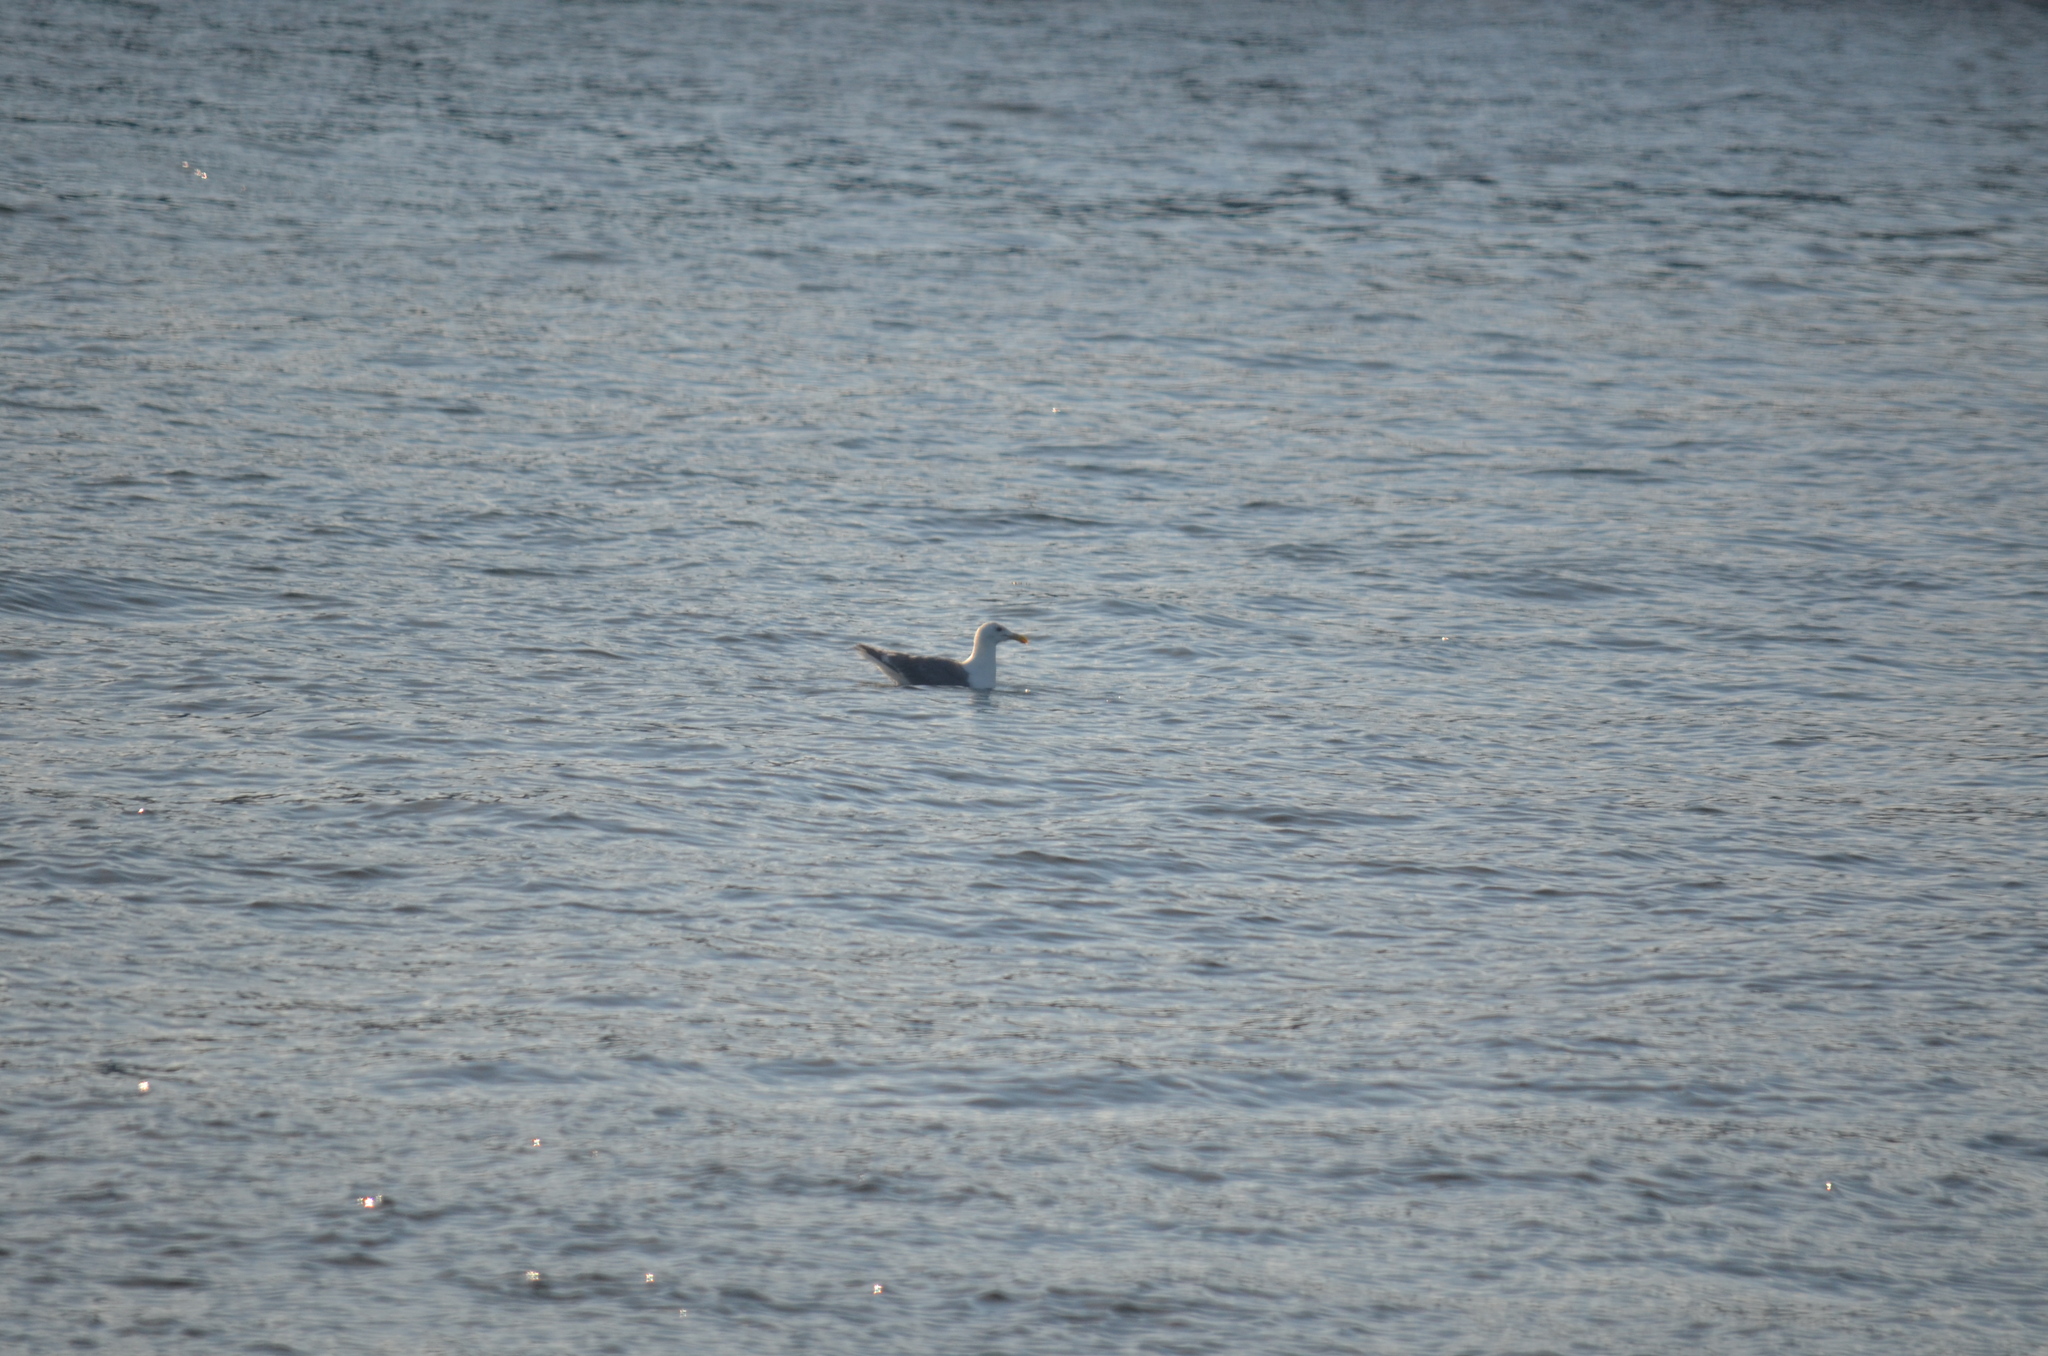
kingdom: Animalia
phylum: Chordata
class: Aves
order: Charadriiformes
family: Laridae
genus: Larus
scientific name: Larus glaucescens
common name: Glaucous-winged gull
